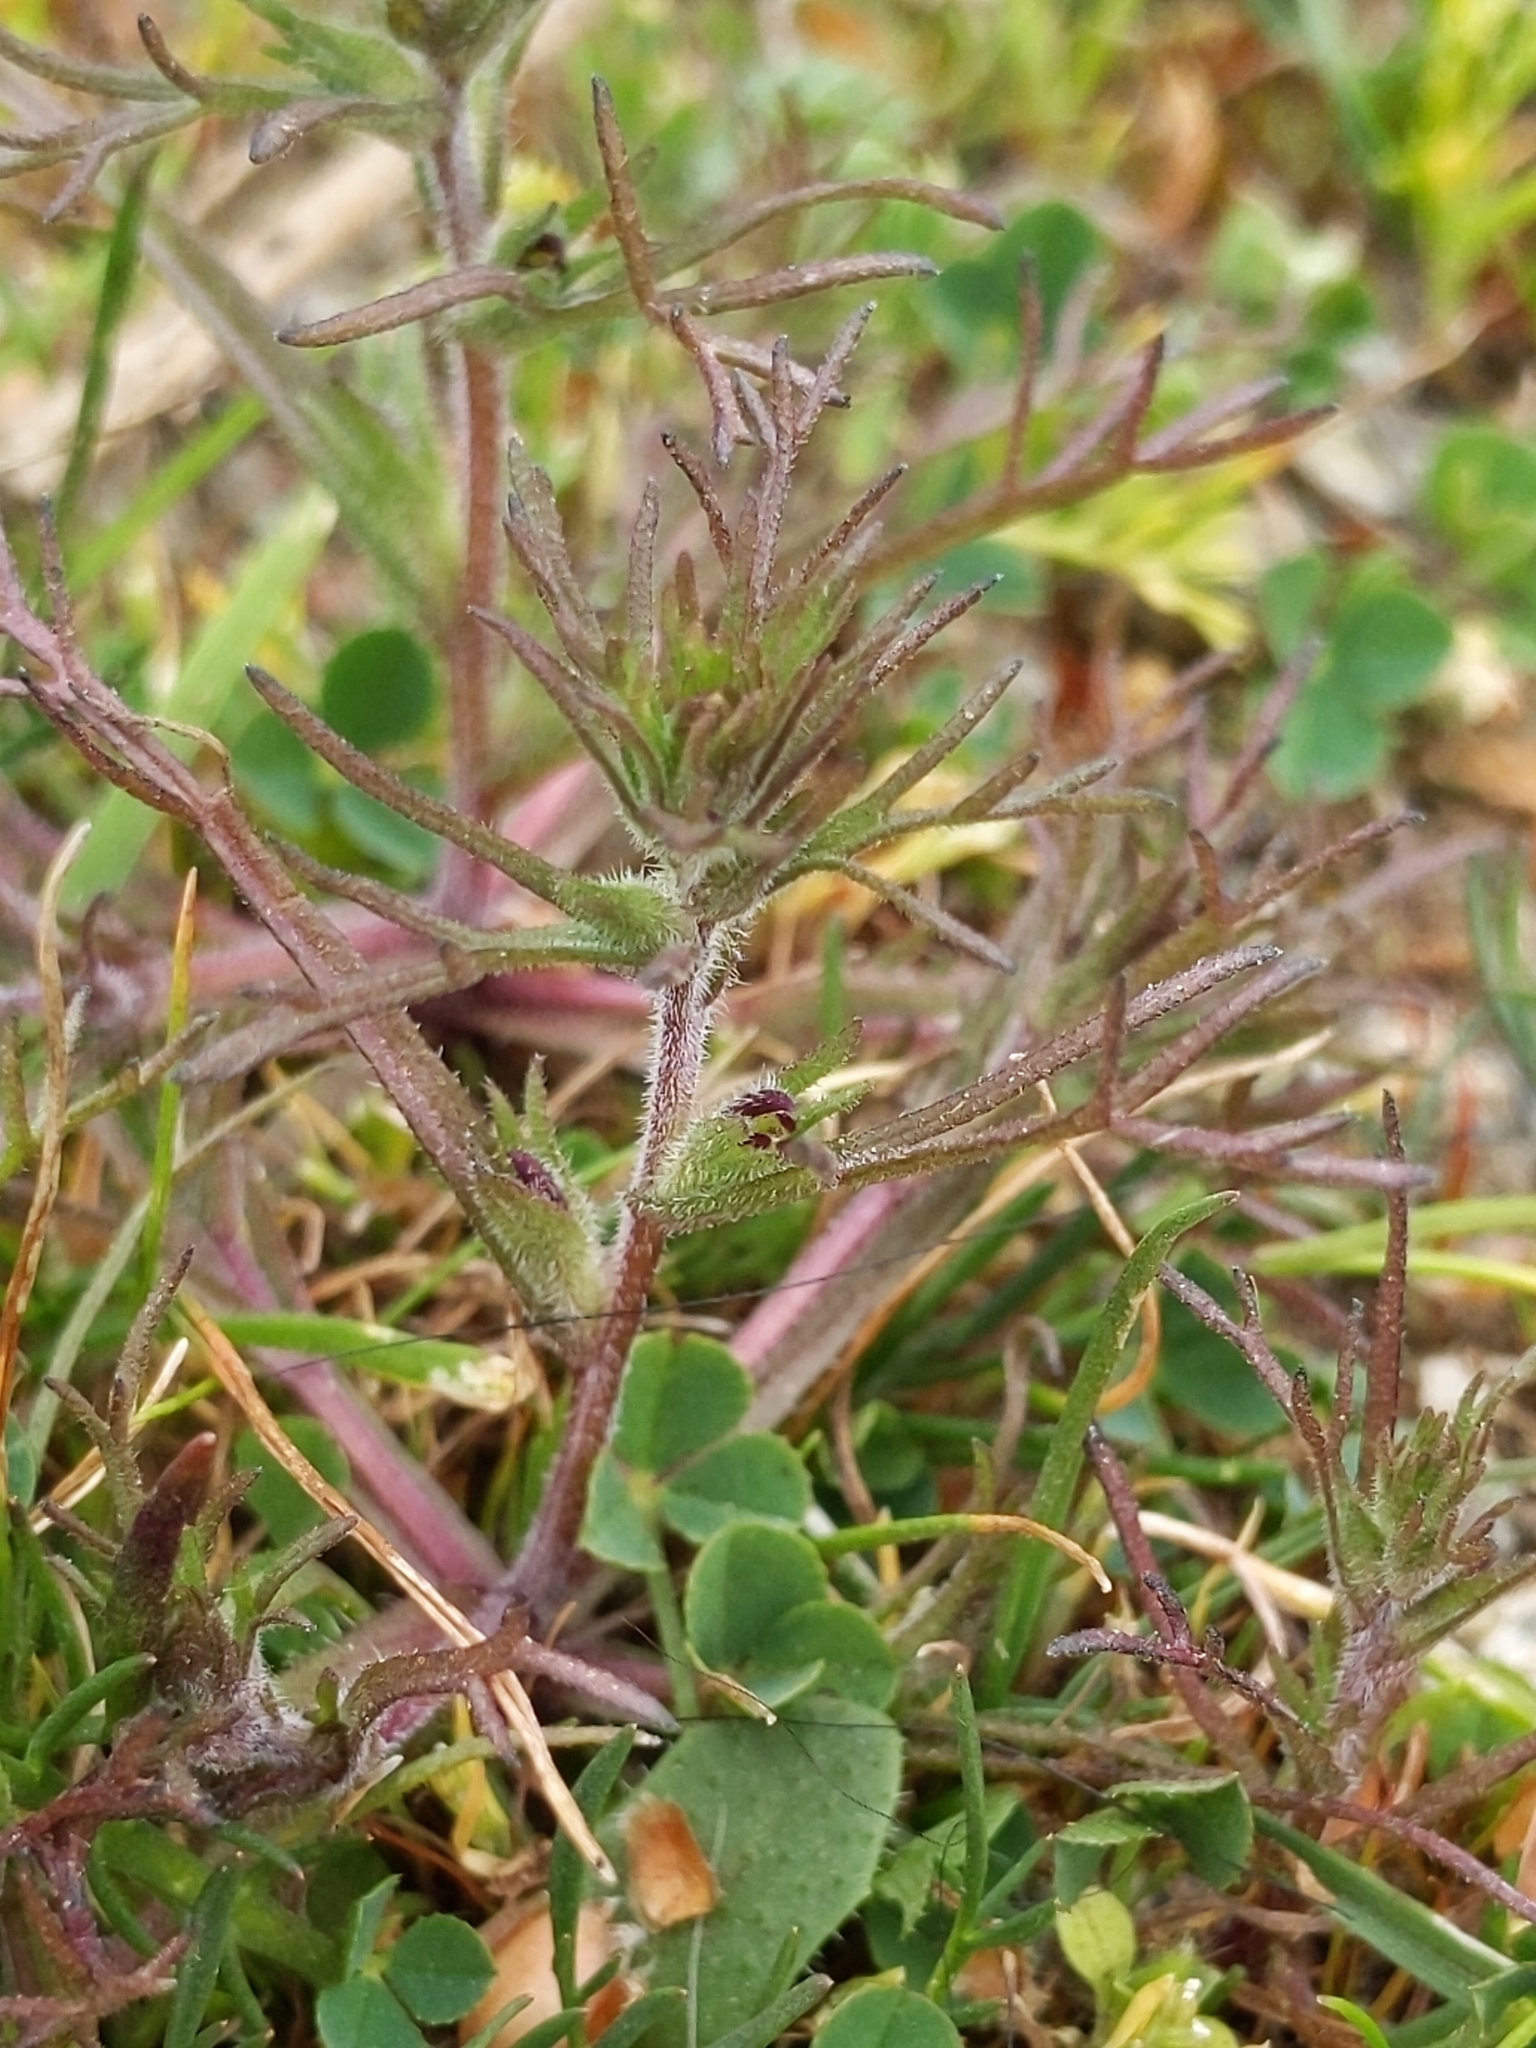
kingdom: Plantae
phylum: Tracheophyta
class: Magnoliopsida
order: Lamiales
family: Orobanchaceae
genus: Triphysaria
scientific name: Triphysaria pusilla
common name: Dwarf false owl-clover
